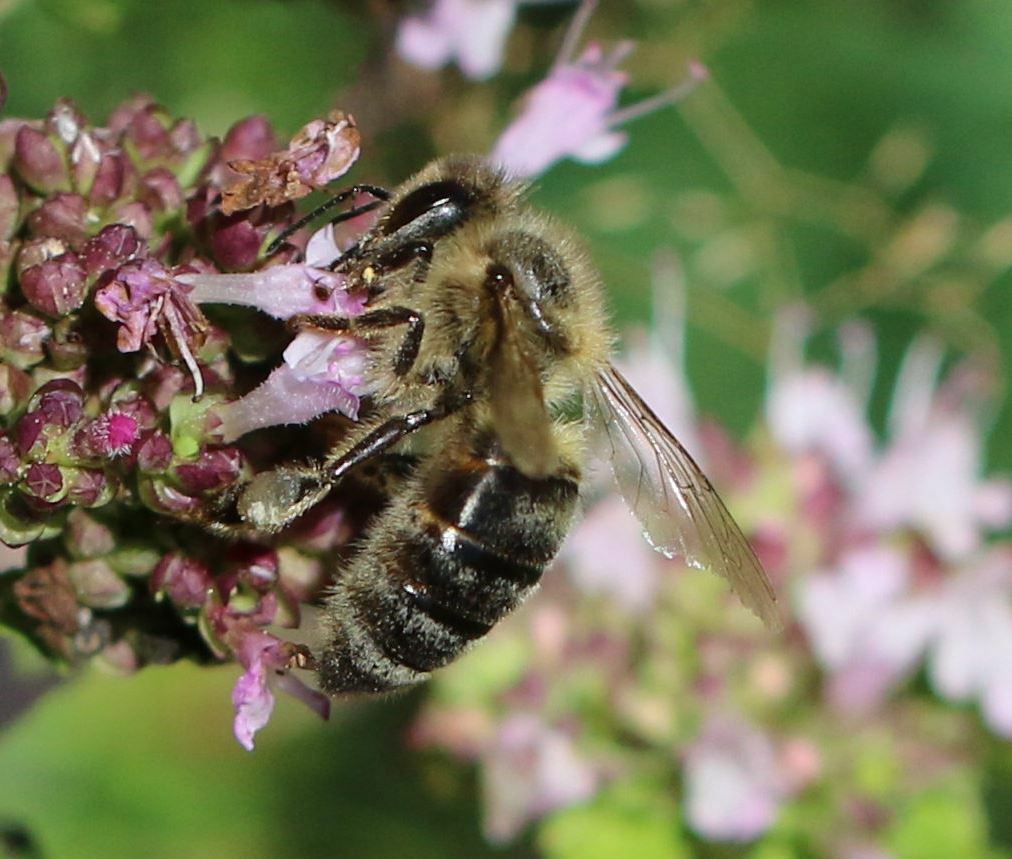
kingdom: Animalia
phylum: Arthropoda
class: Insecta
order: Hymenoptera
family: Apidae
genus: Apis
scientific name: Apis mellifera
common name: Honey bee
